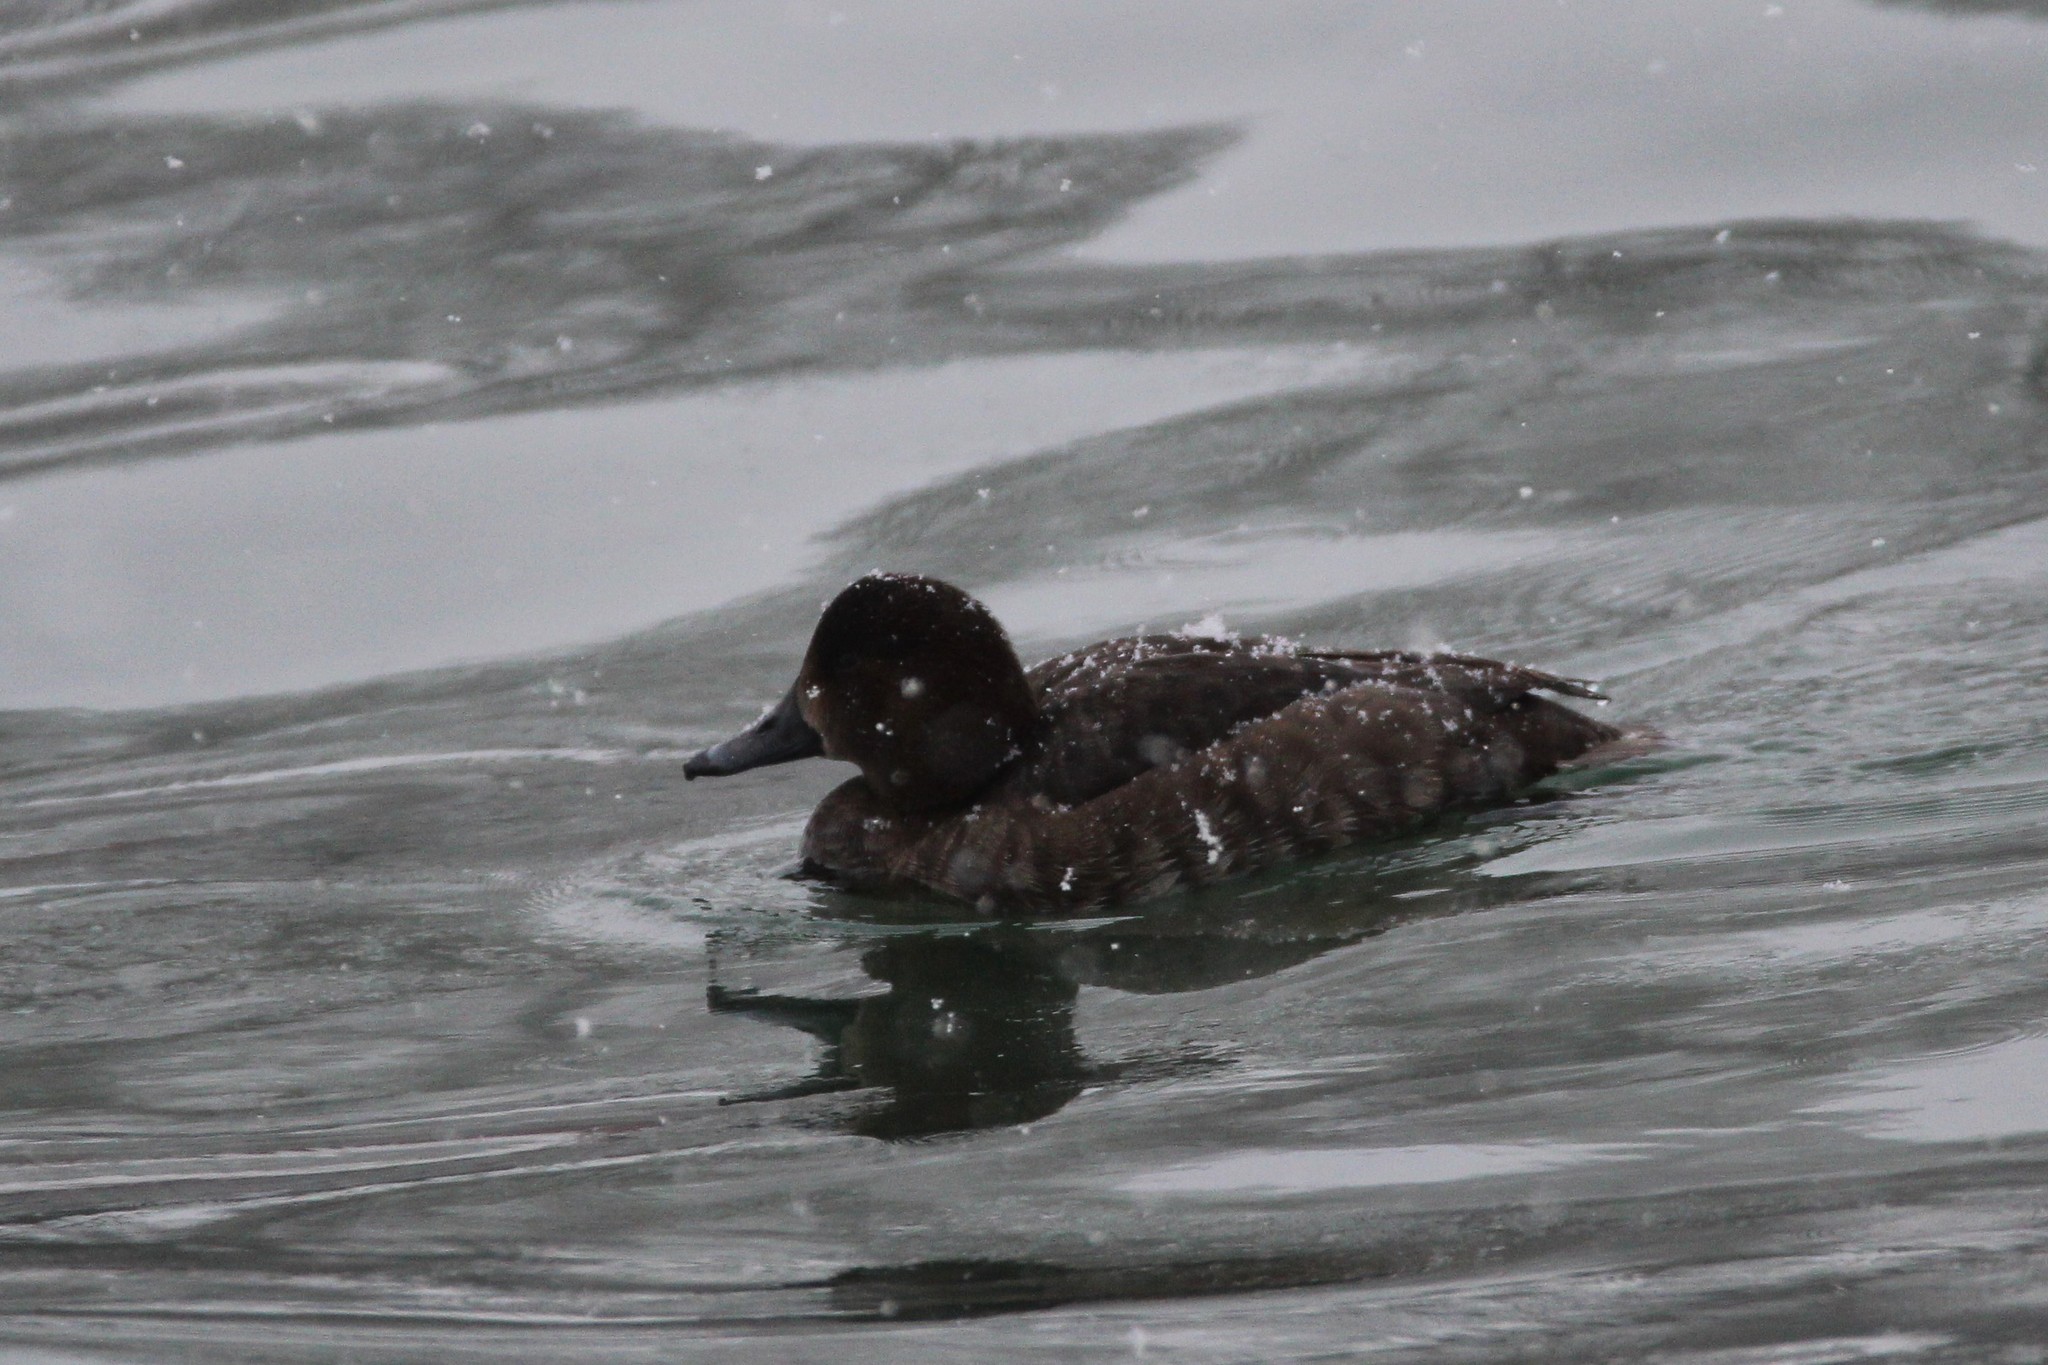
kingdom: Animalia
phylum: Chordata
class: Aves
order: Anseriformes
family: Anatidae
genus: Aythya
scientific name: Aythya americana
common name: Redhead
